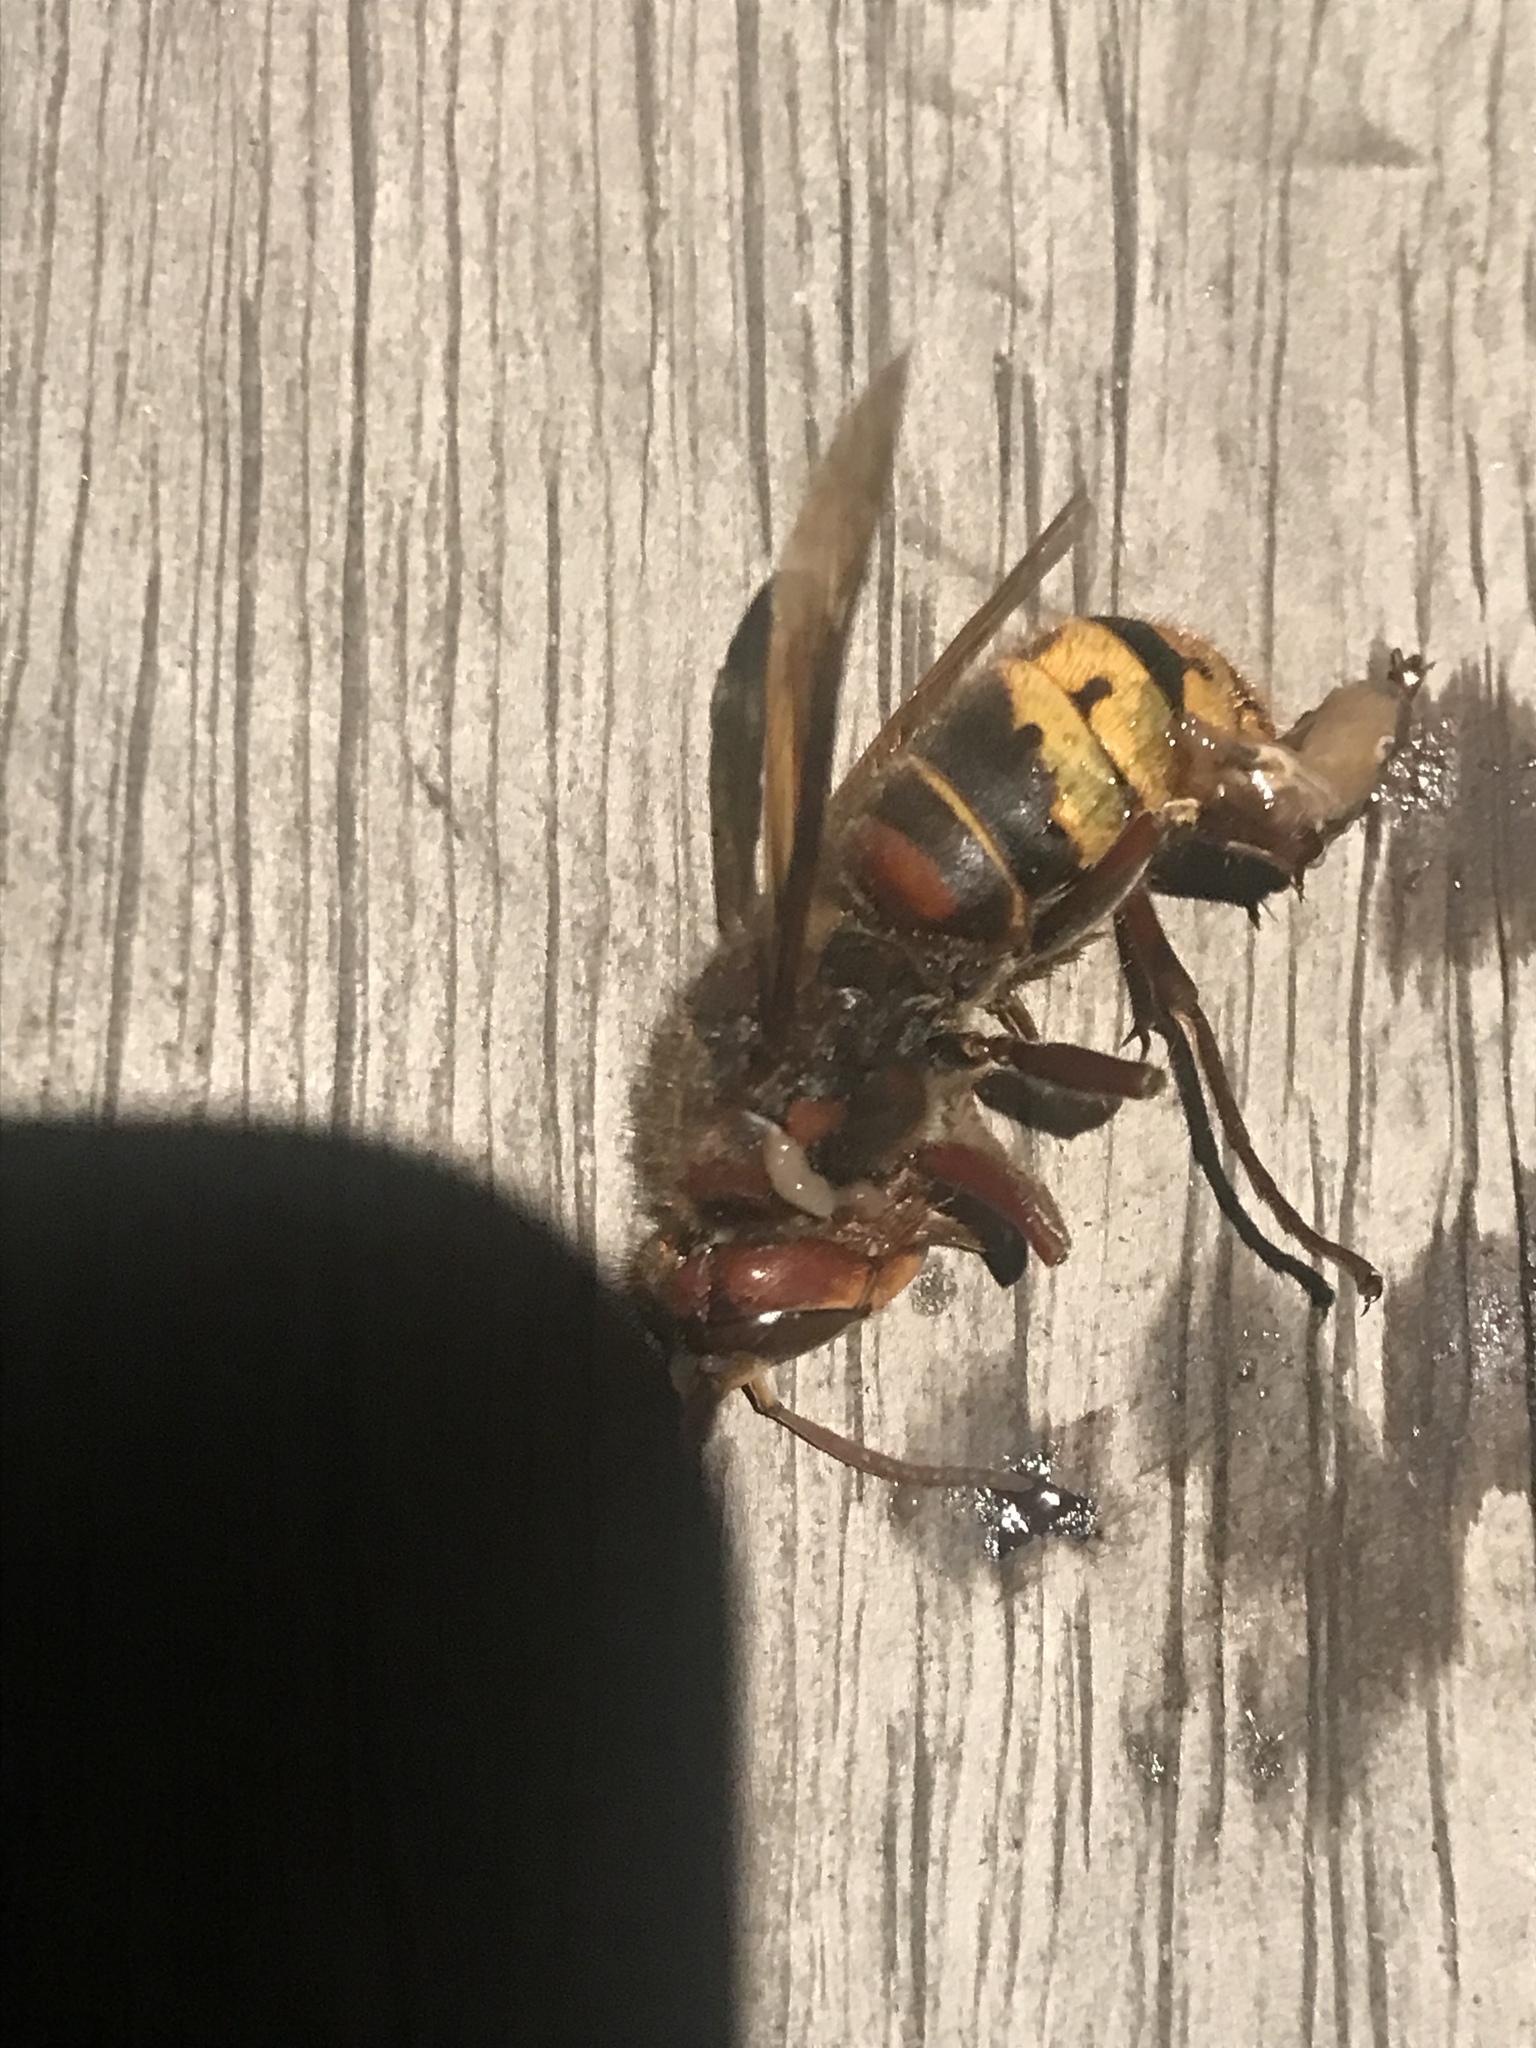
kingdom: Animalia
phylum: Arthropoda
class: Insecta
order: Hymenoptera
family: Vespidae
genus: Vespa
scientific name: Vespa crabro
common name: Hornet
